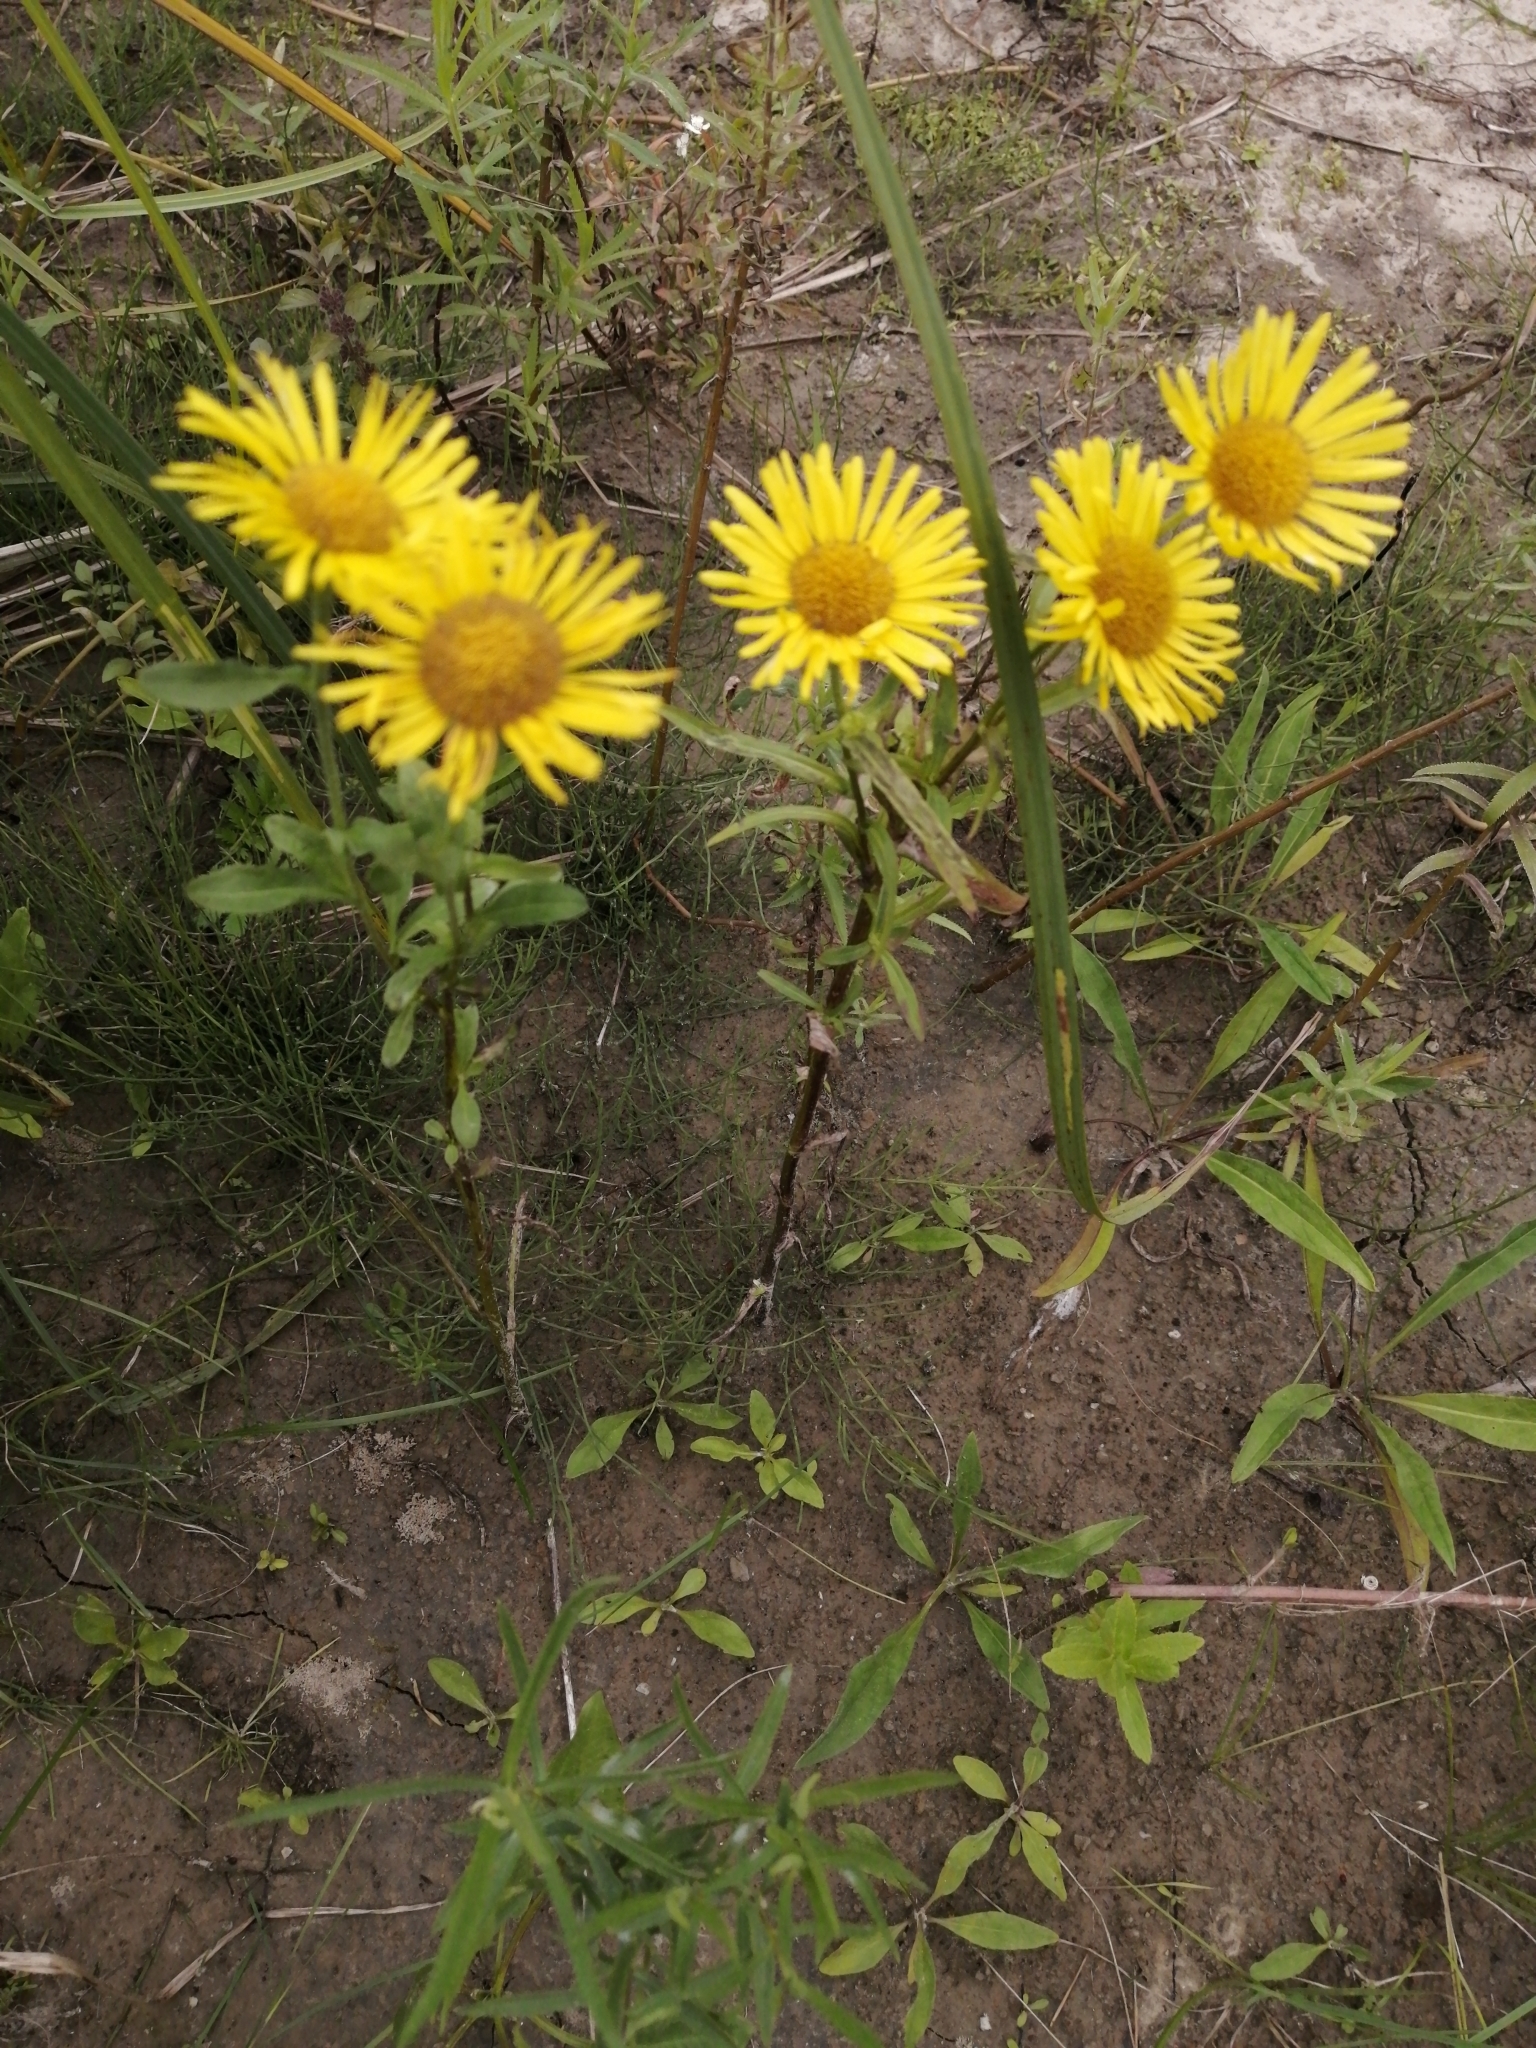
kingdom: Plantae
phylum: Tracheophyta
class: Magnoliopsida
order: Asterales
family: Asteraceae
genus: Pentanema
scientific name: Pentanema britannicum
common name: British elecampane
